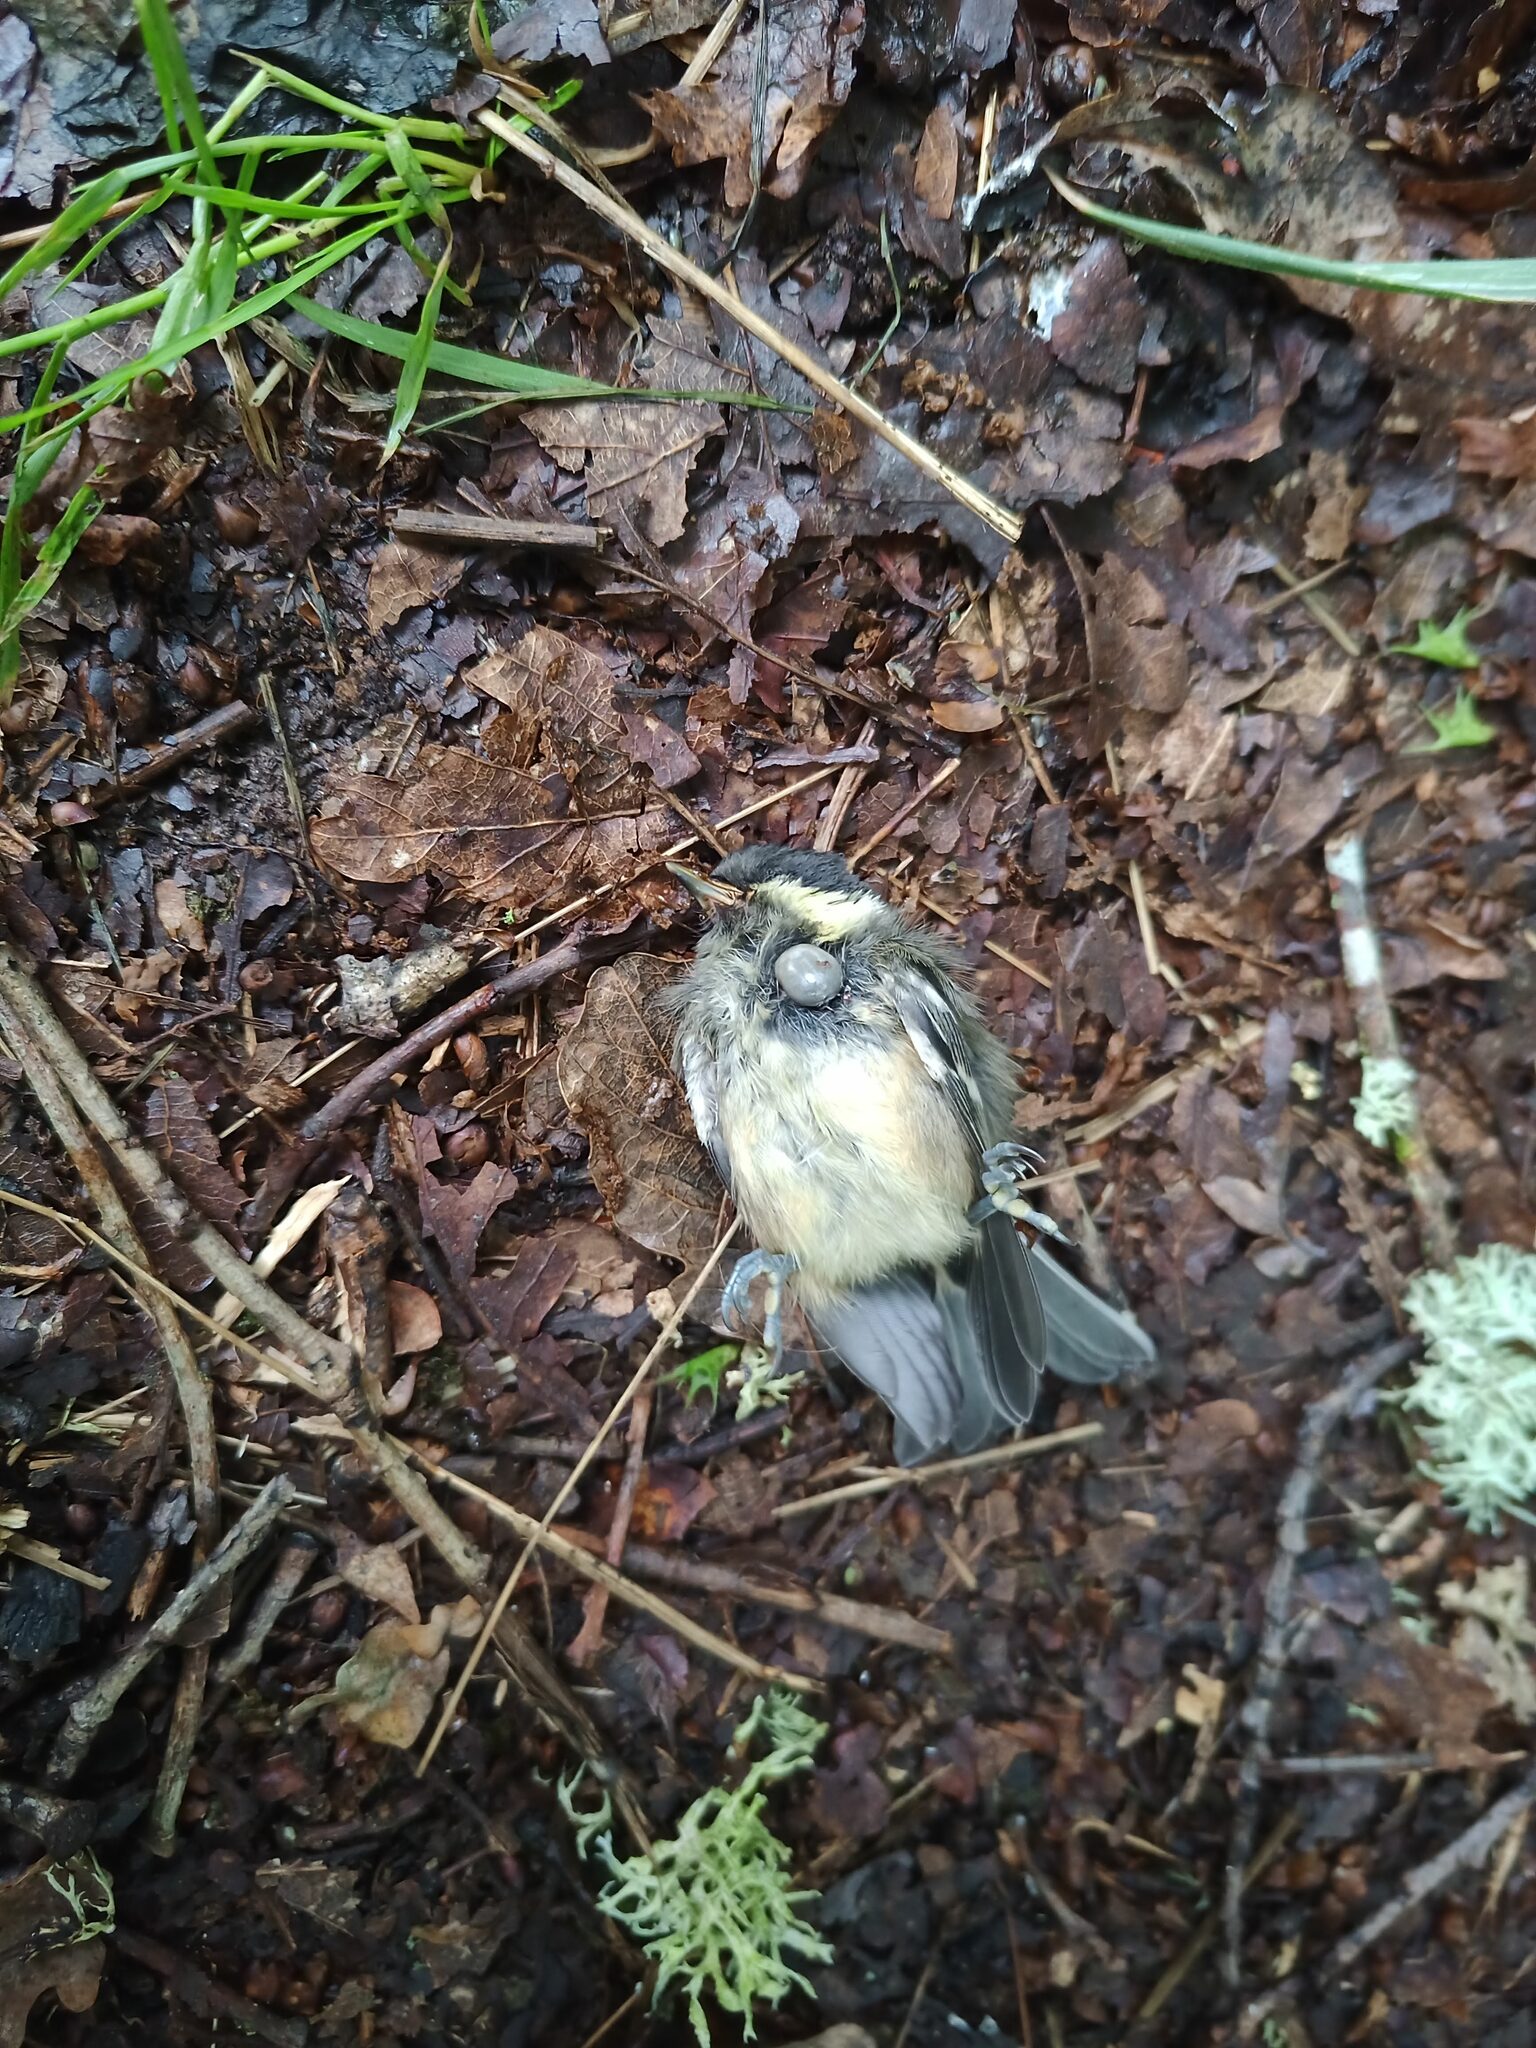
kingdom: Animalia
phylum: Chordata
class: Aves
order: Passeriformes
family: Paridae
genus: Parus
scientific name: Parus major
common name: Great tit
